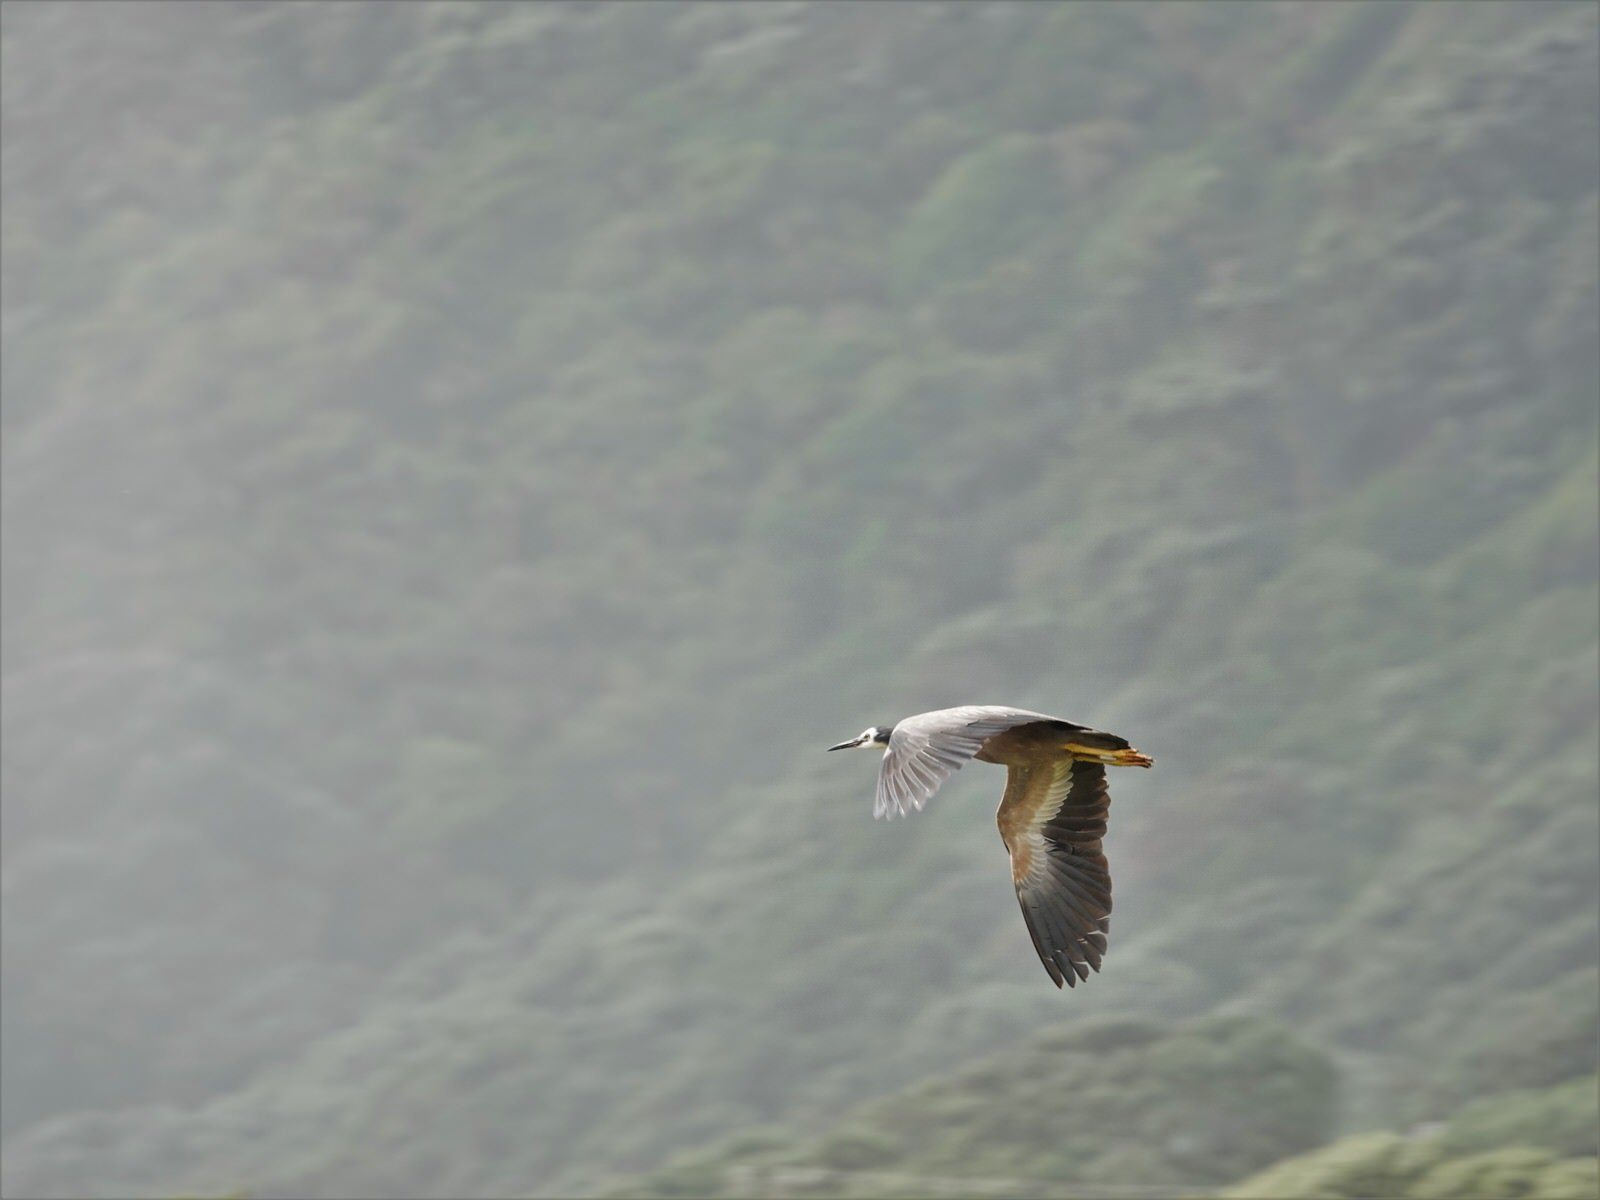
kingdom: Animalia
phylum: Chordata
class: Aves
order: Pelecaniformes
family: Ardeidae
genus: Egretta
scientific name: Egretta novaehollandiae
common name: White-faced heron
